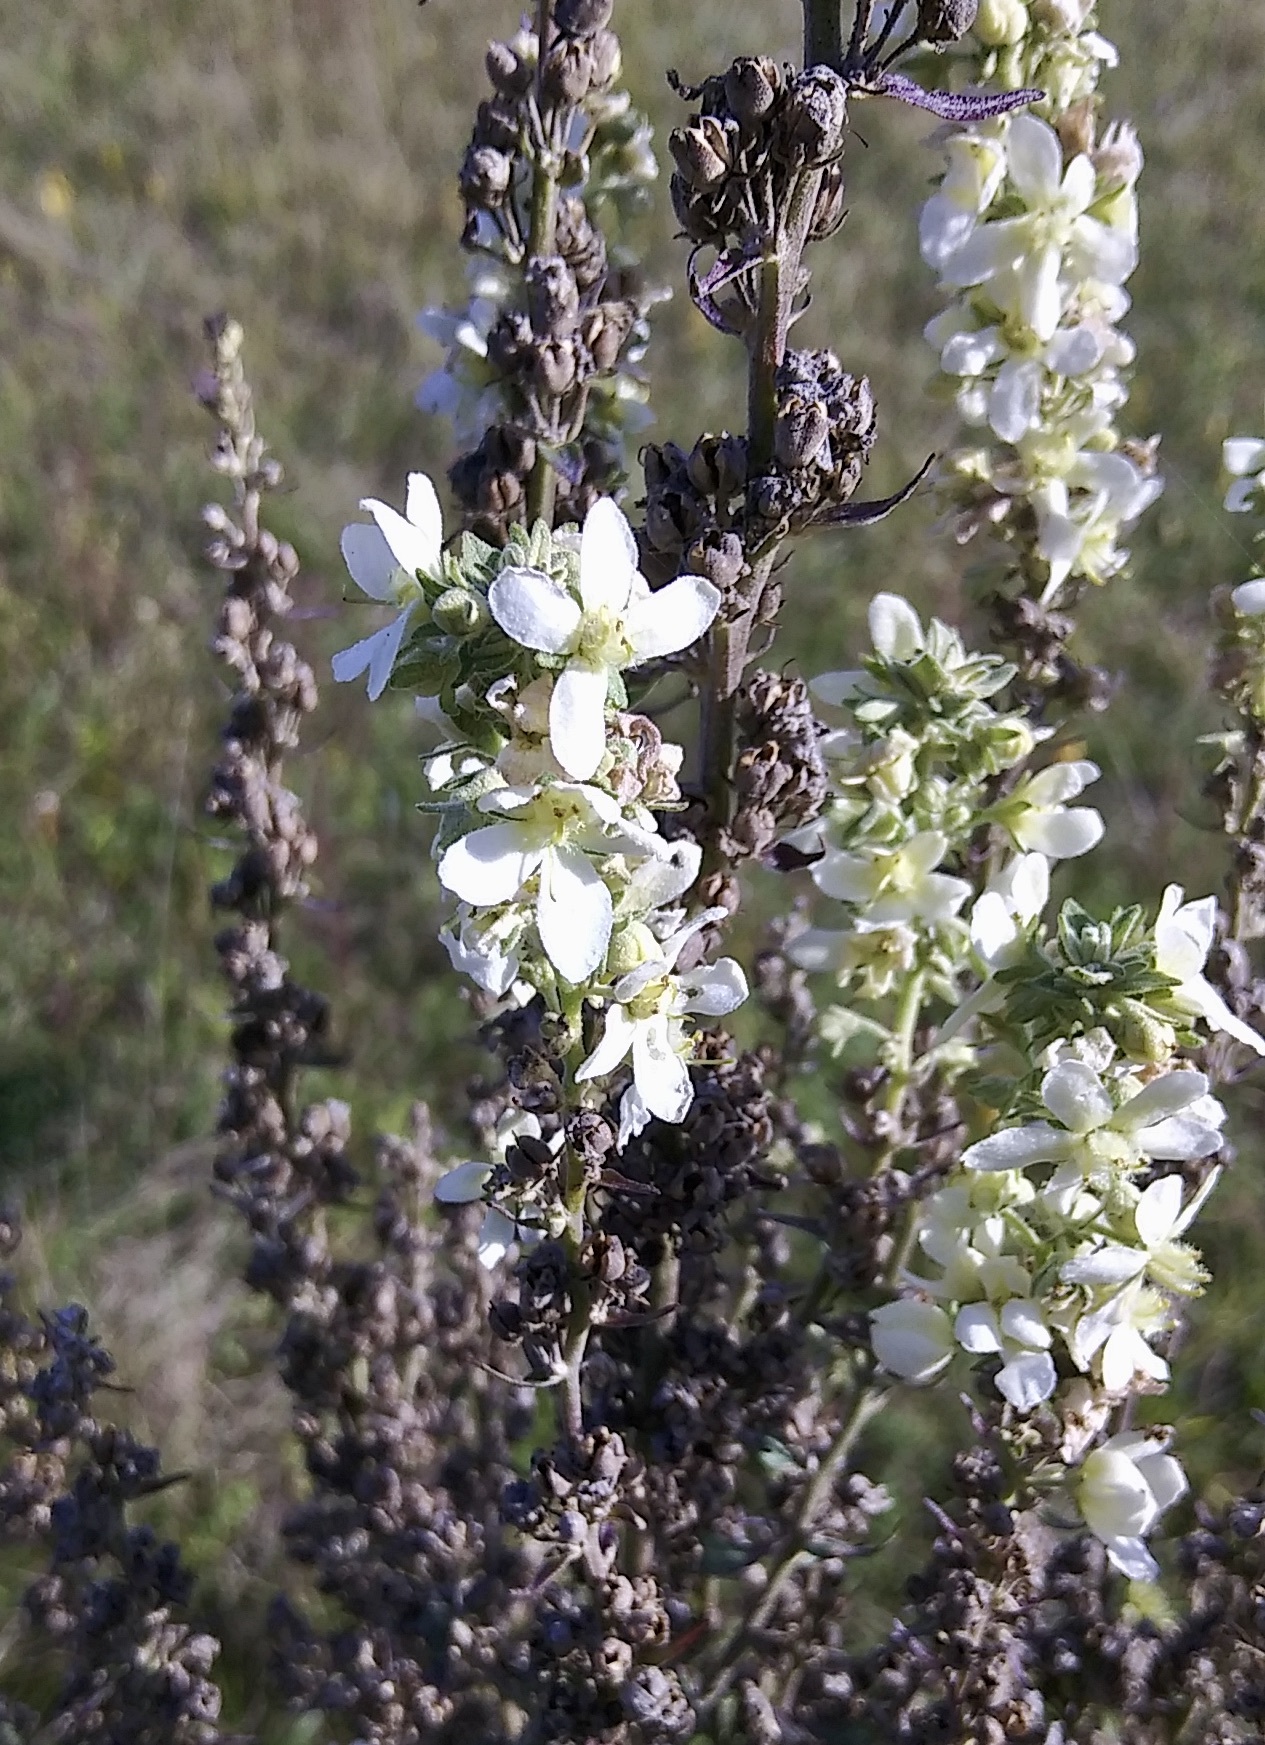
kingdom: Plantae
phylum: Tracheophyta
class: Magnoliopsida
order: Lamiales
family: Scrophulariaceae
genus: Verbascum
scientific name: Verbascum lychnitis
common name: White mullein
